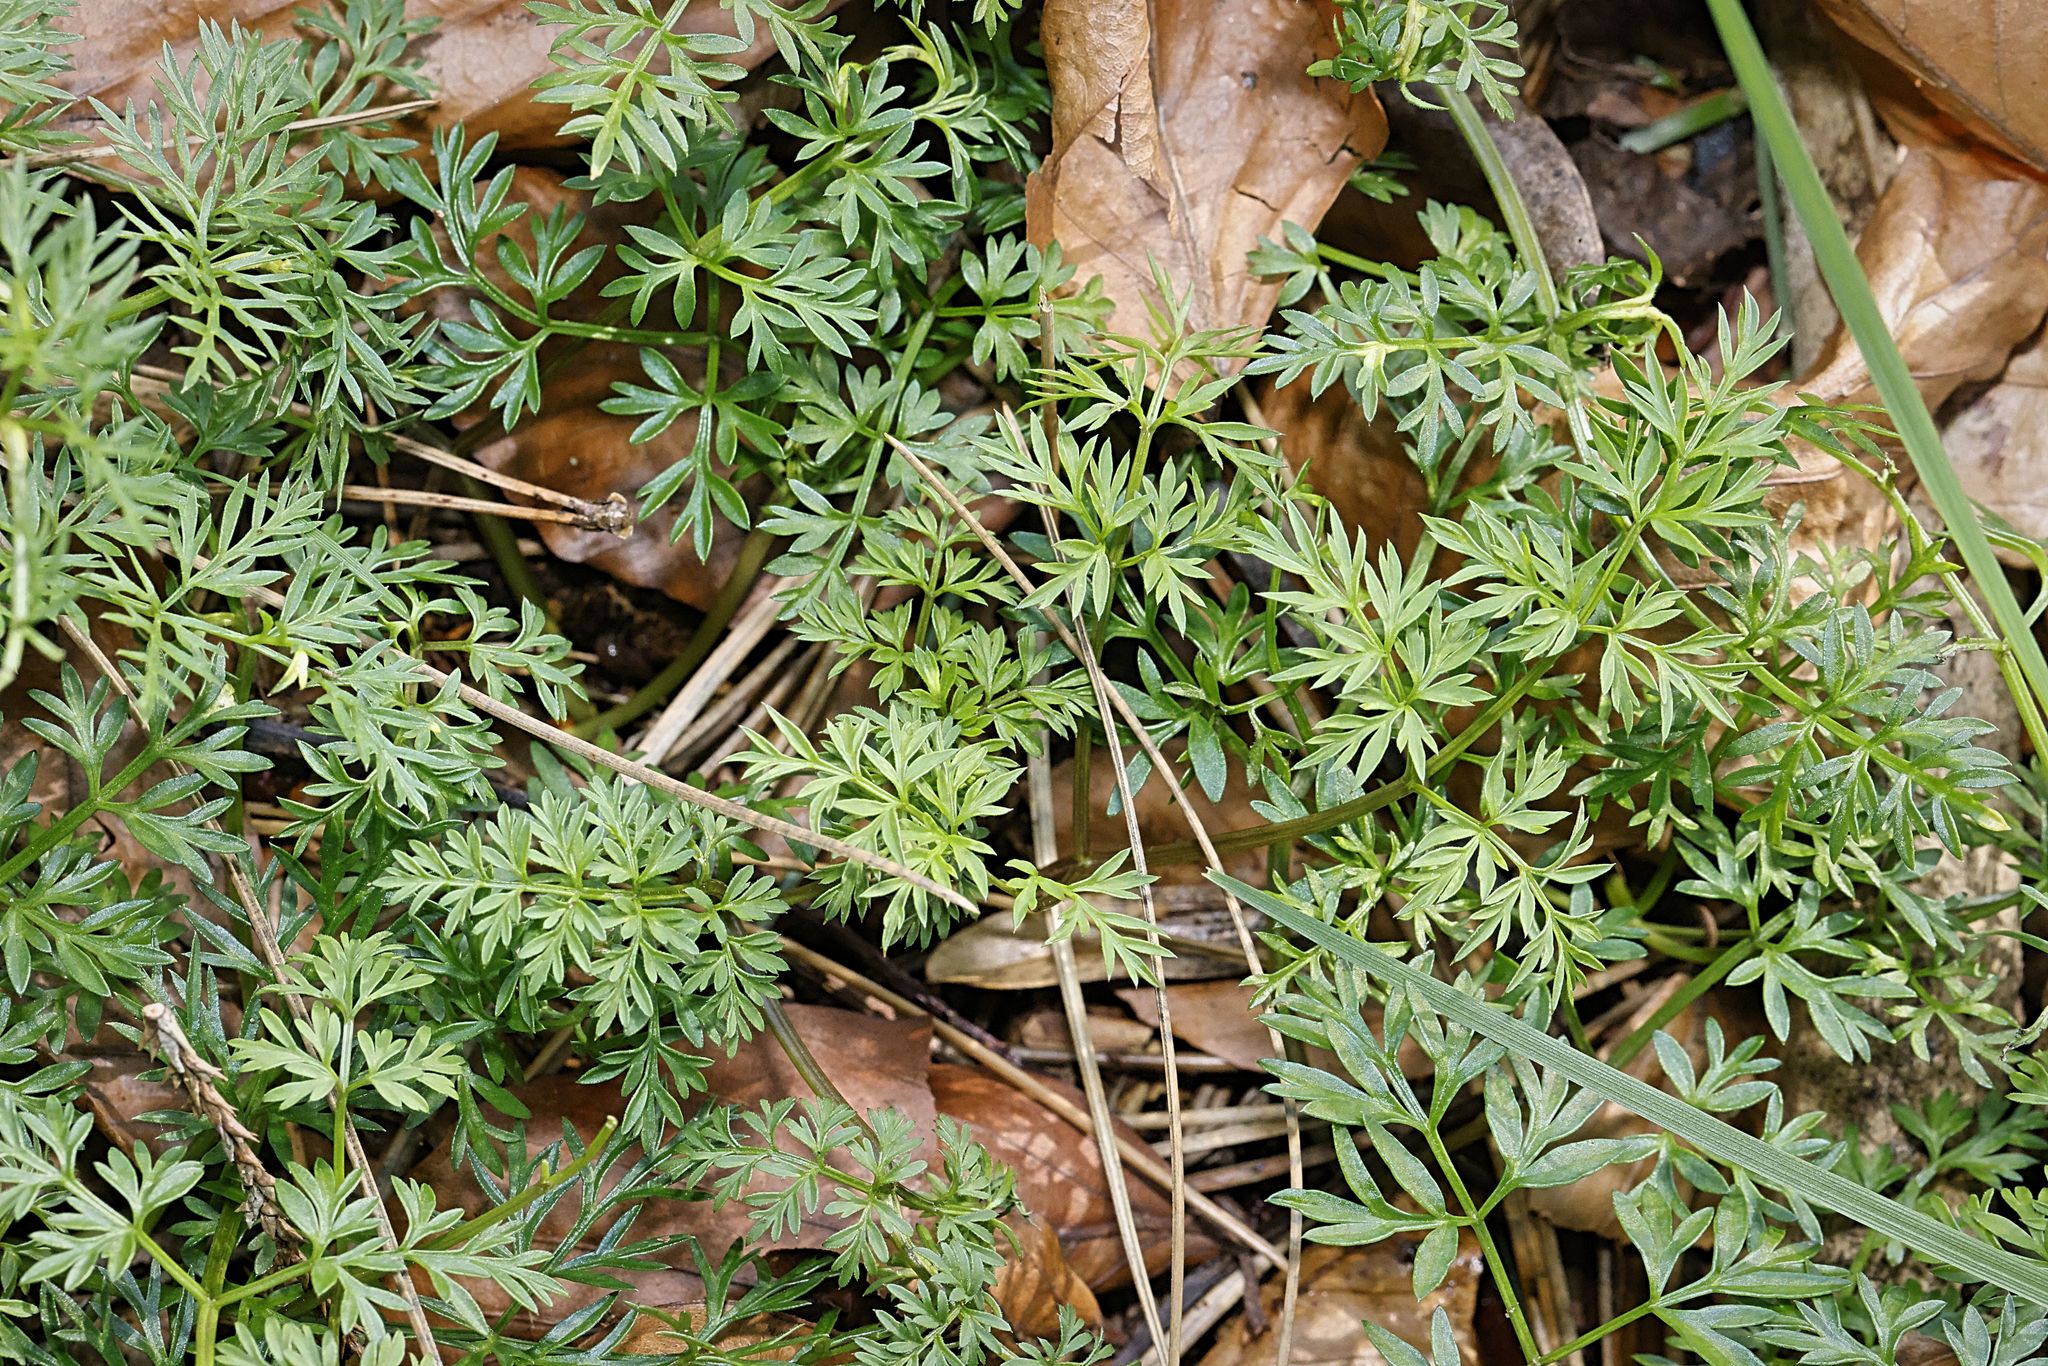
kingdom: Plantae
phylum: Tracheophyta
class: Magnoliopsida
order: Apiales
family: Apiaceae
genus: Conopodium
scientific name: Conopodium majus
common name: Pignut
